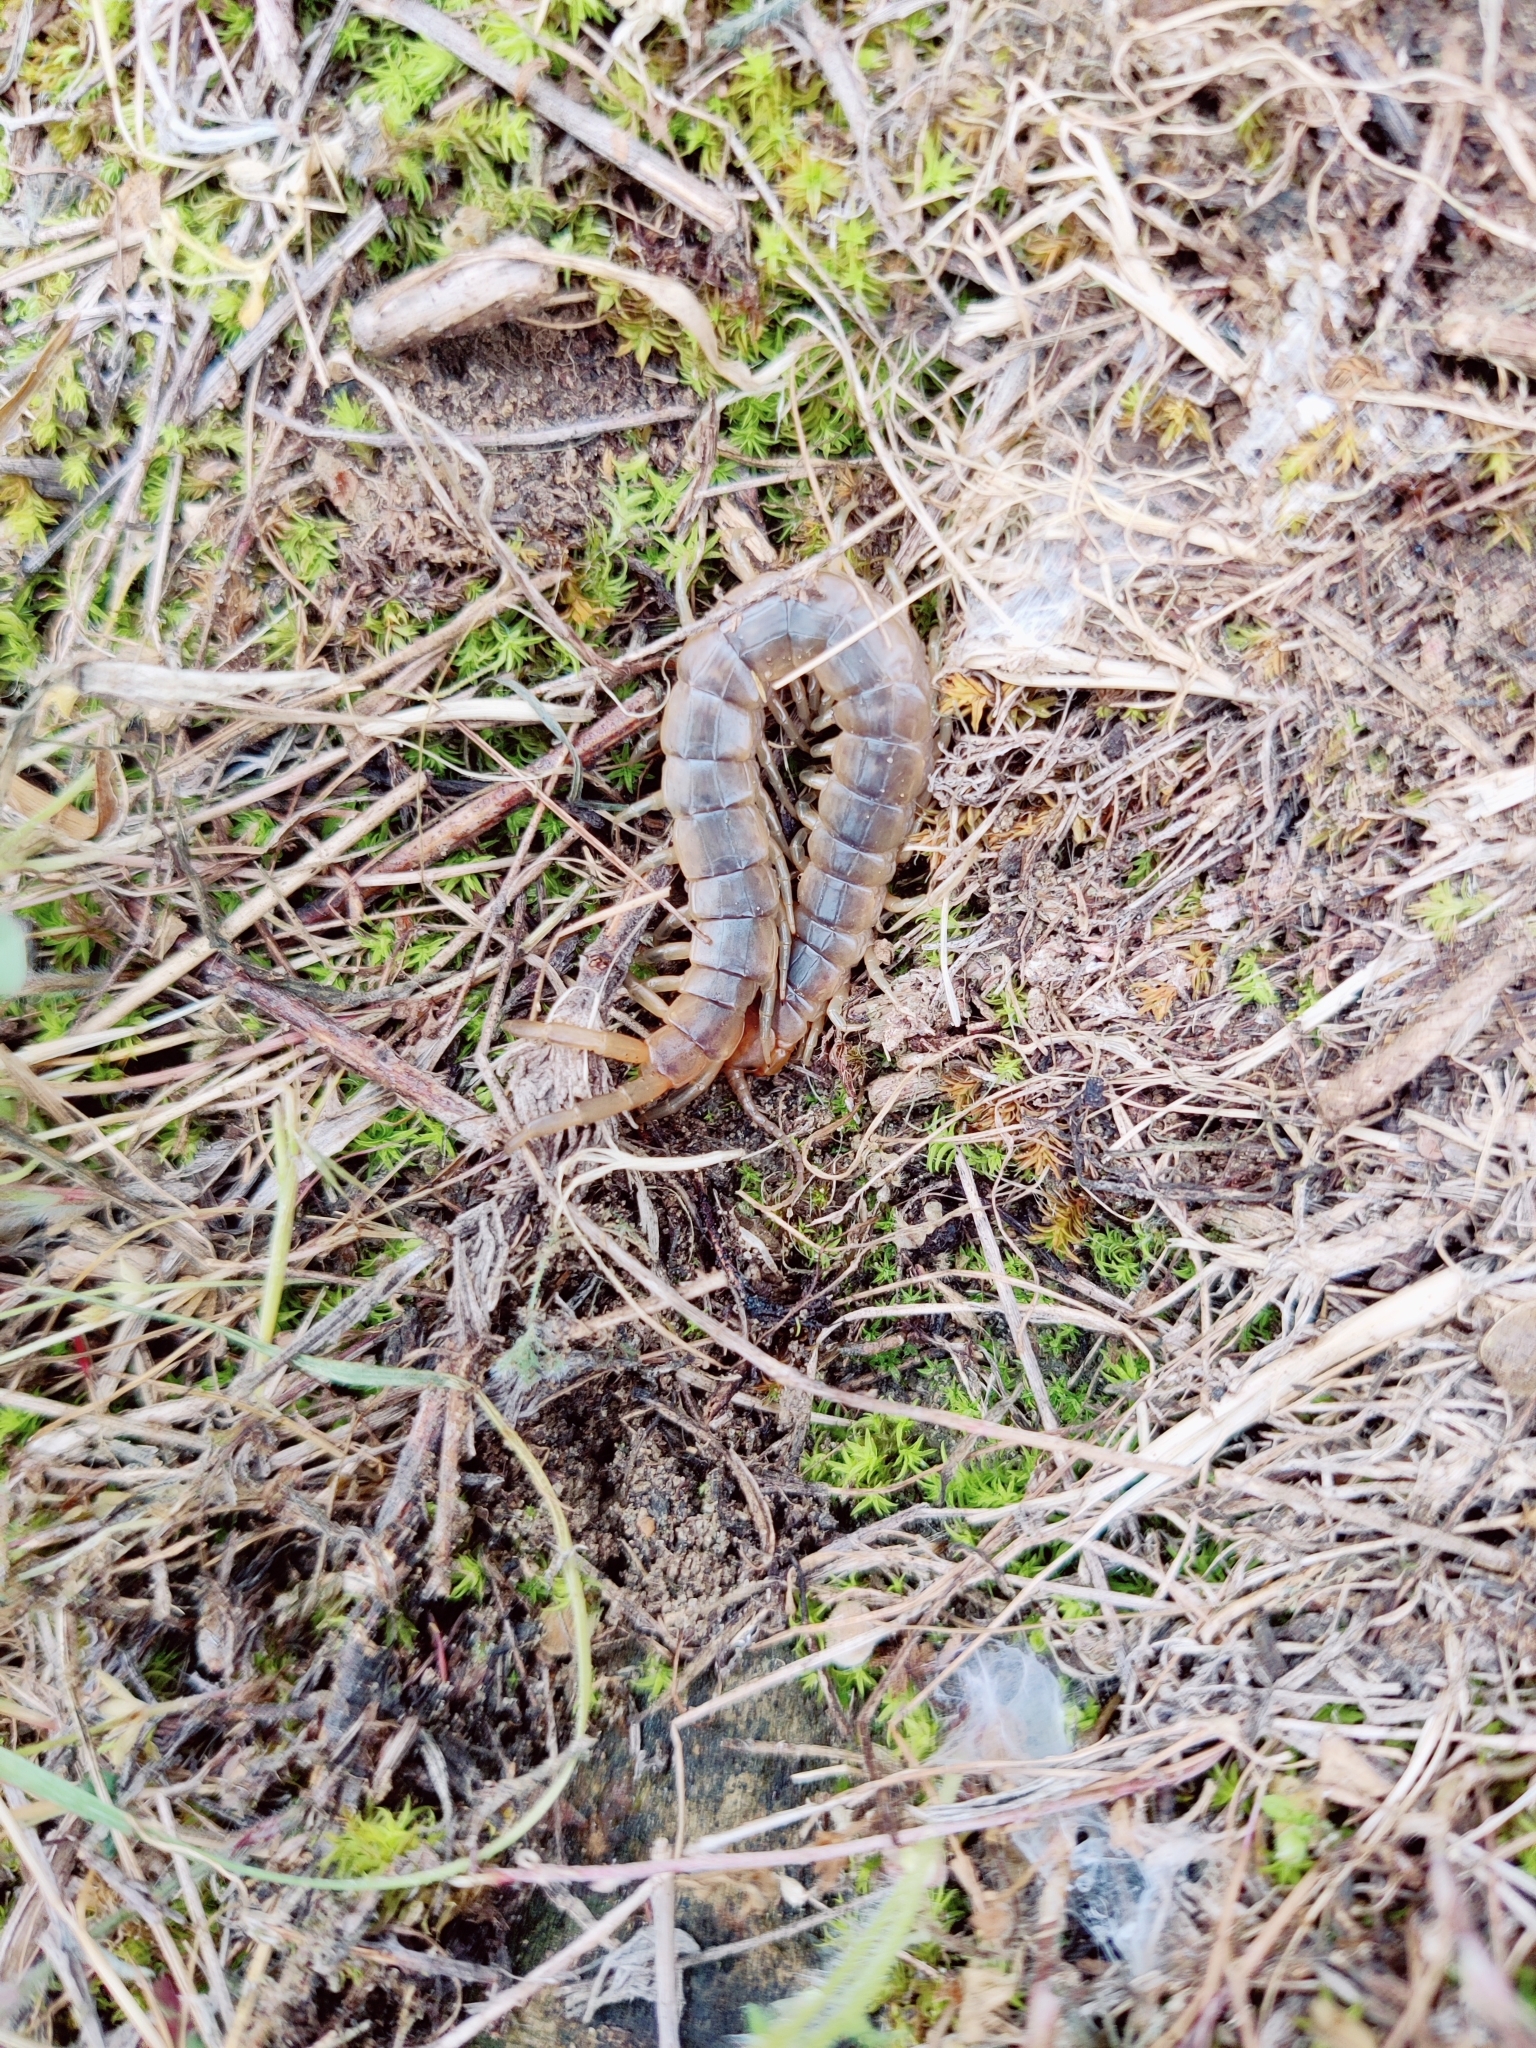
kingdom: Animalia
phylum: Arthropoda
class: Chilopoda
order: Scolopendromorpha
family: Scolopendridae
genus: Scolopendra
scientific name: Scolopendra canidens
